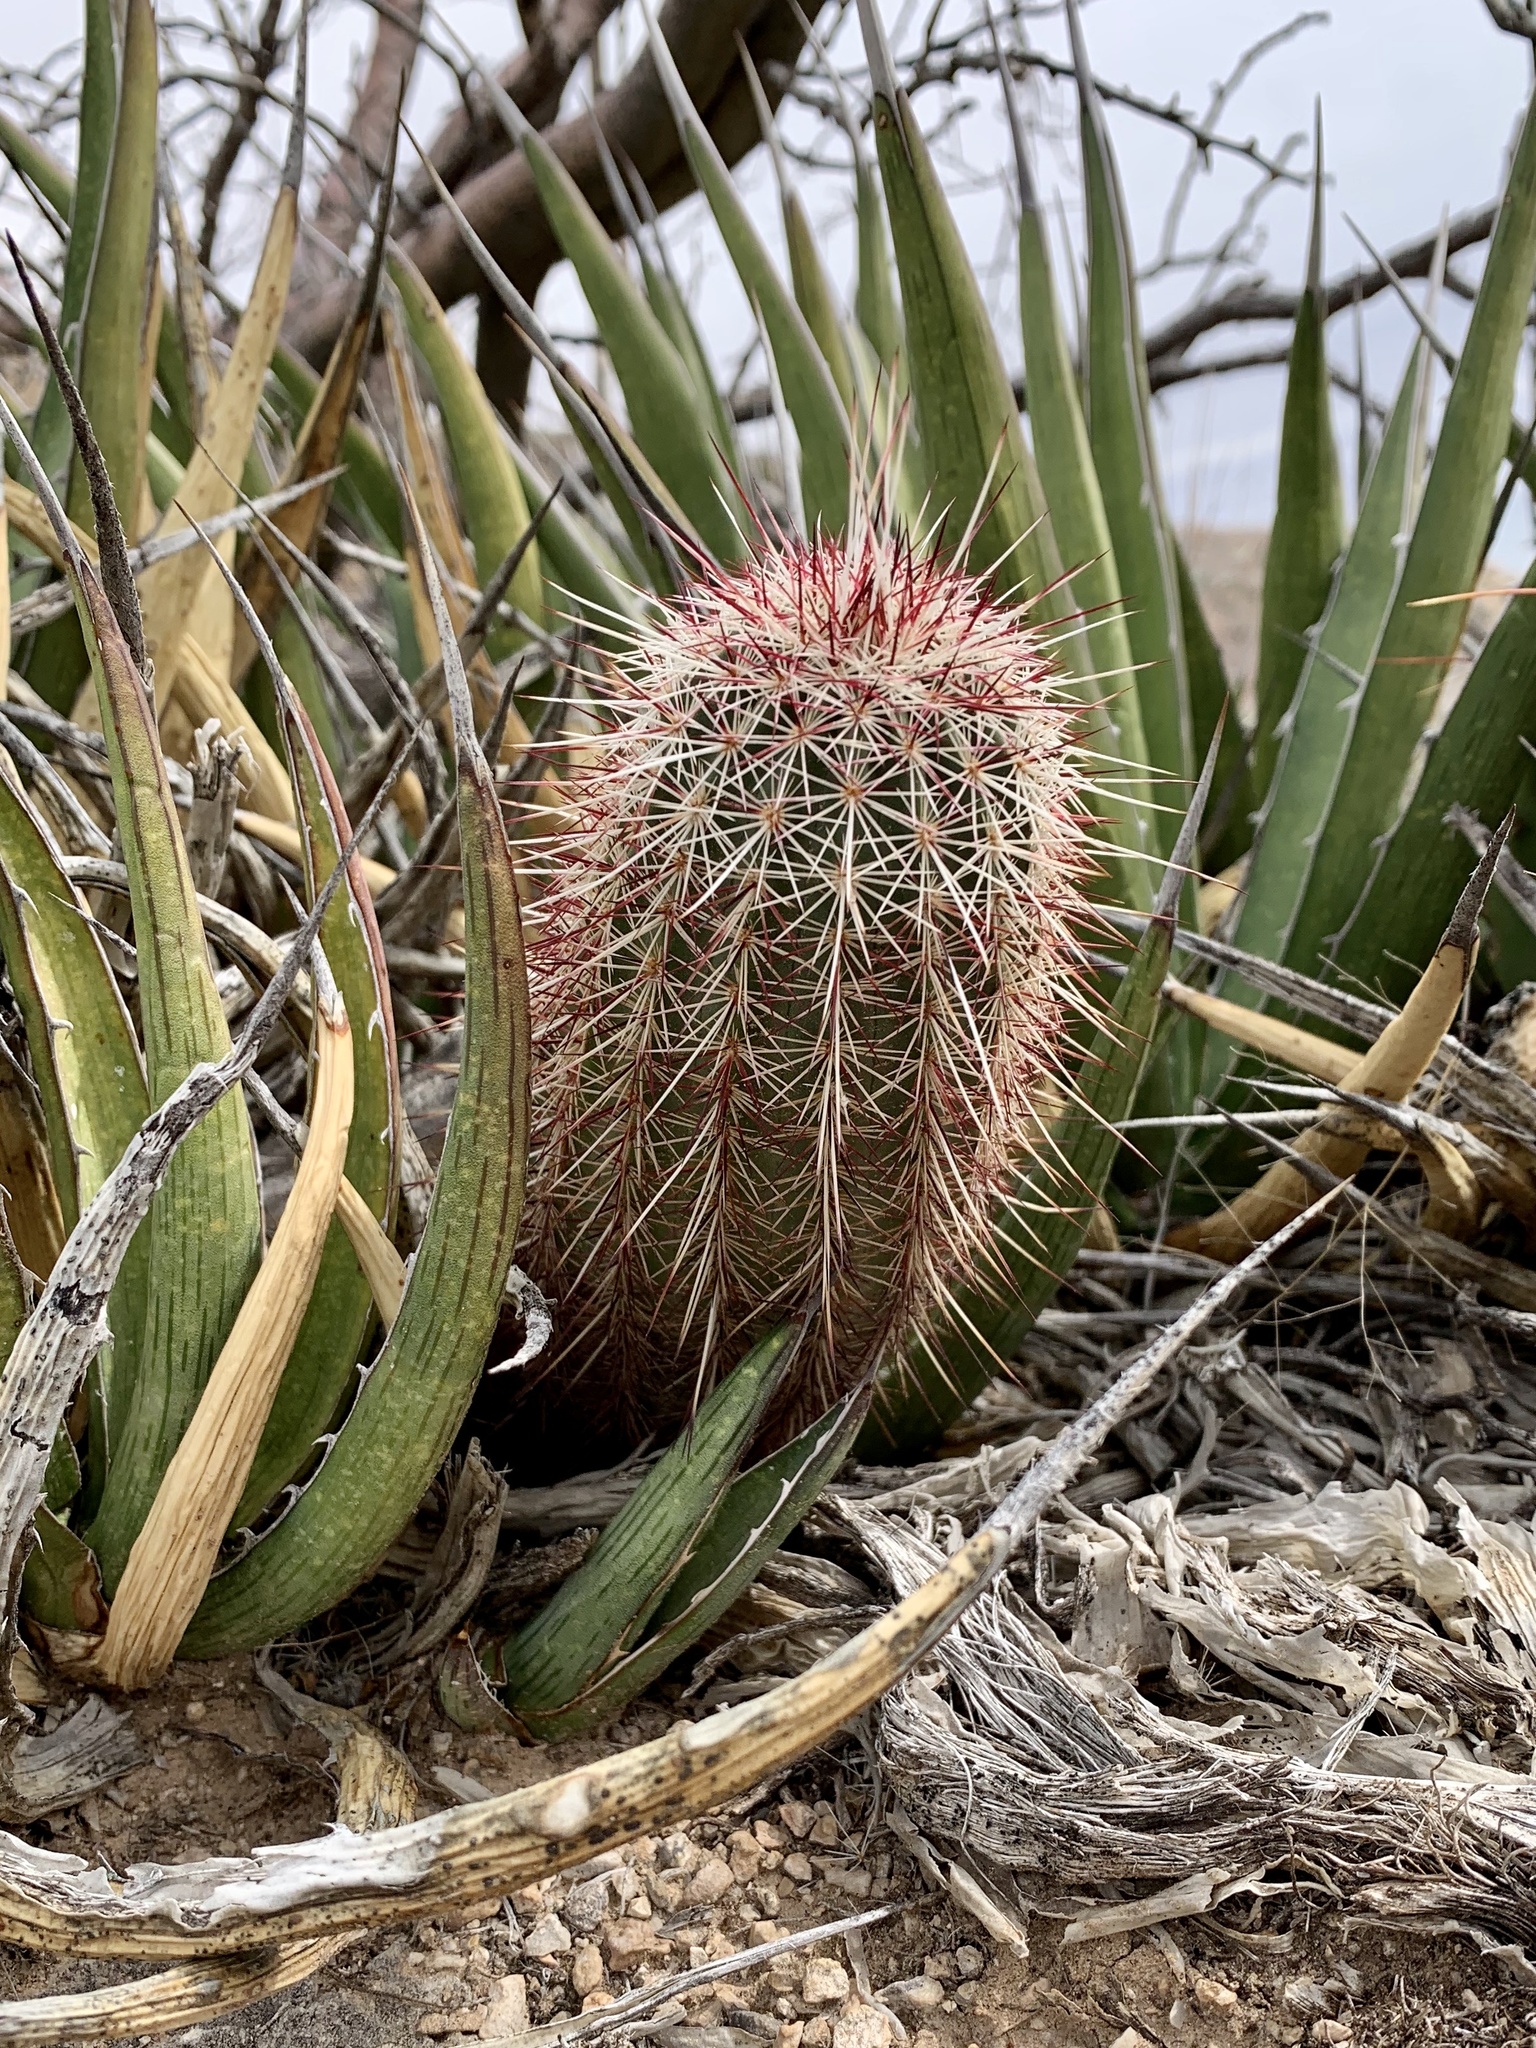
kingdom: Plantae
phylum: Tracheophyta
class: Magnoliopsida
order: Caryophyllales
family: Cactaceae
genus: Echinocereus
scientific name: Echinocereus viridiflorus
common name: Nylon hedgehog cactus
